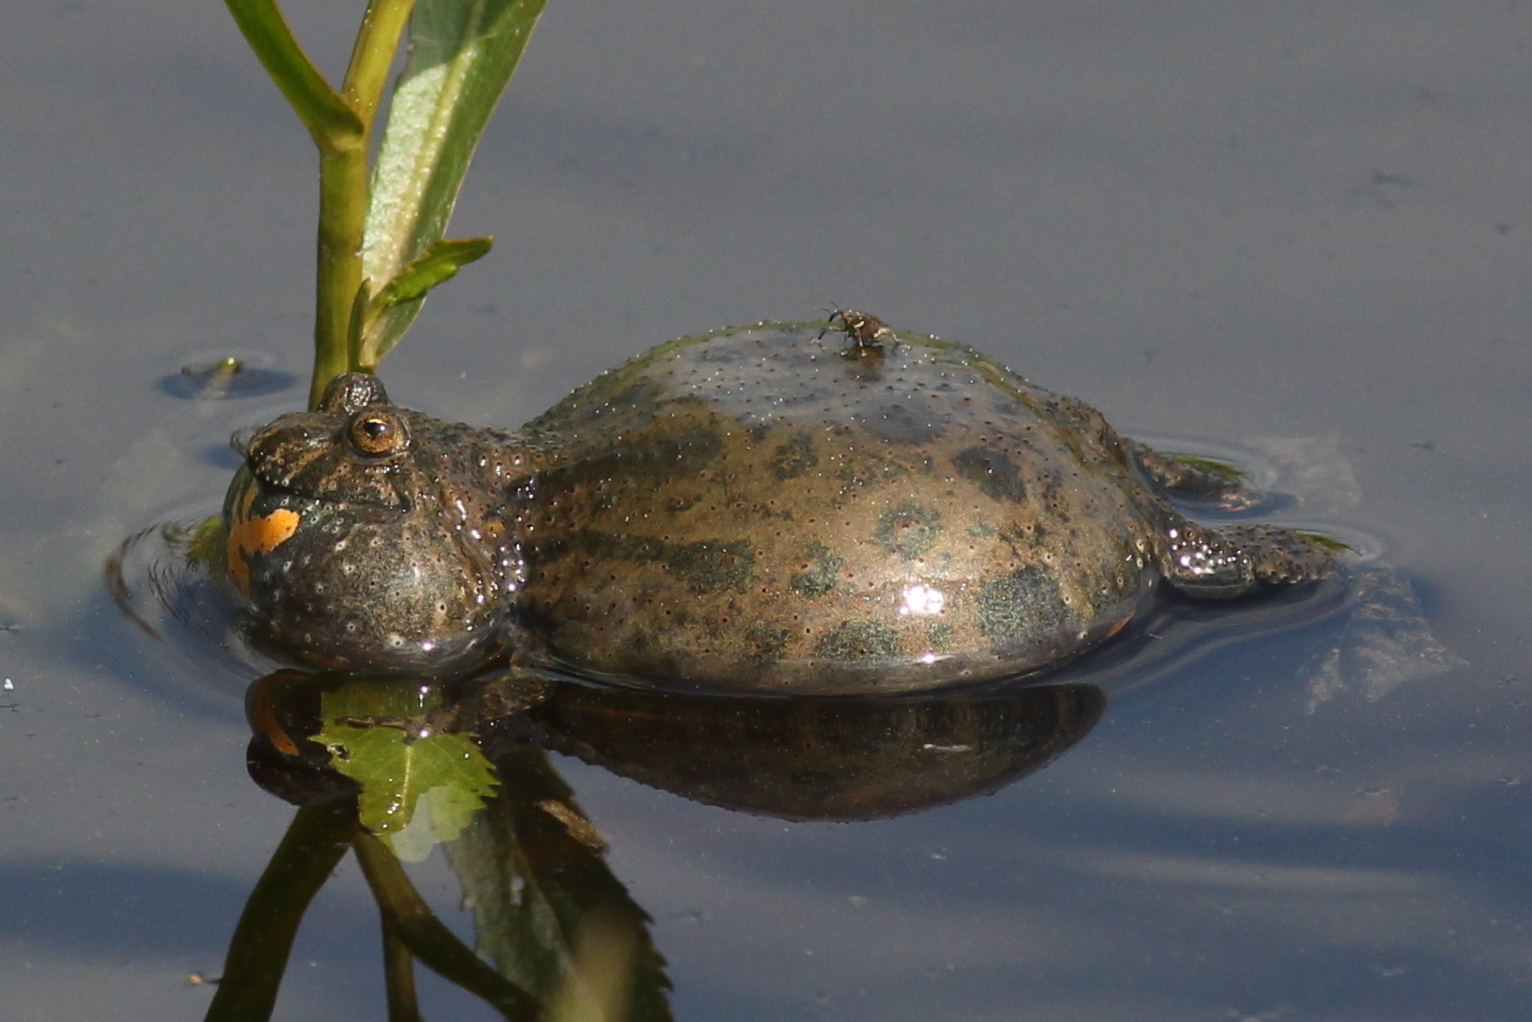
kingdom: Animalia
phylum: Chordata
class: Amphibia
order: Anura
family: Bombinatoridae
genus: Bombina
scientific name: Bombina bombina
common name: Fire-bellied toad
